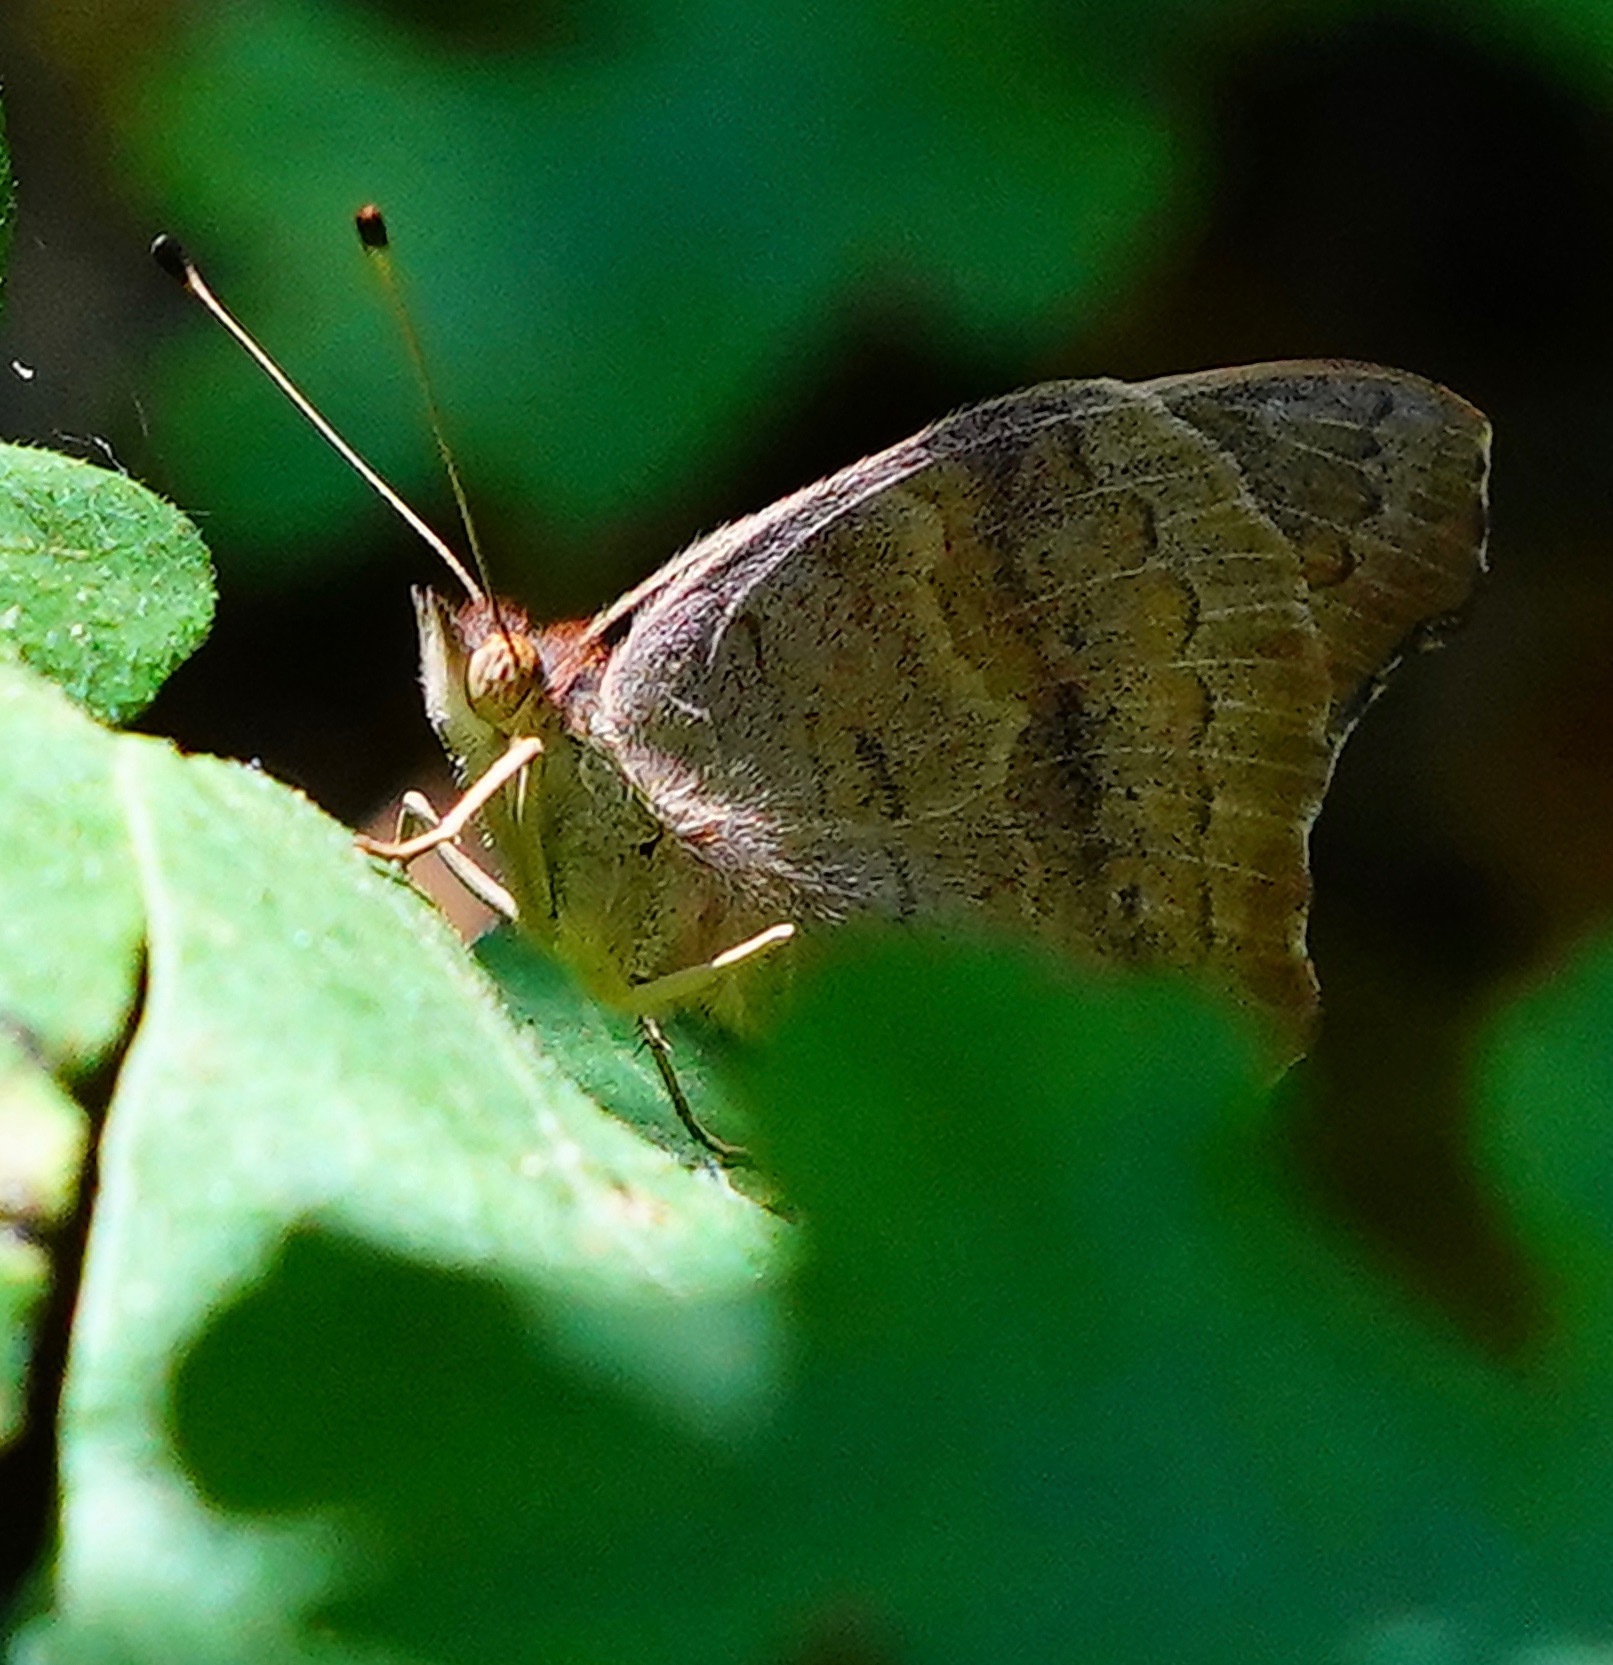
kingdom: Animalia
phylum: Arthropoda
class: Insecta
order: Lepidoptera
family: Nymphalidae
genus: Junonia
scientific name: Junonia grisea
